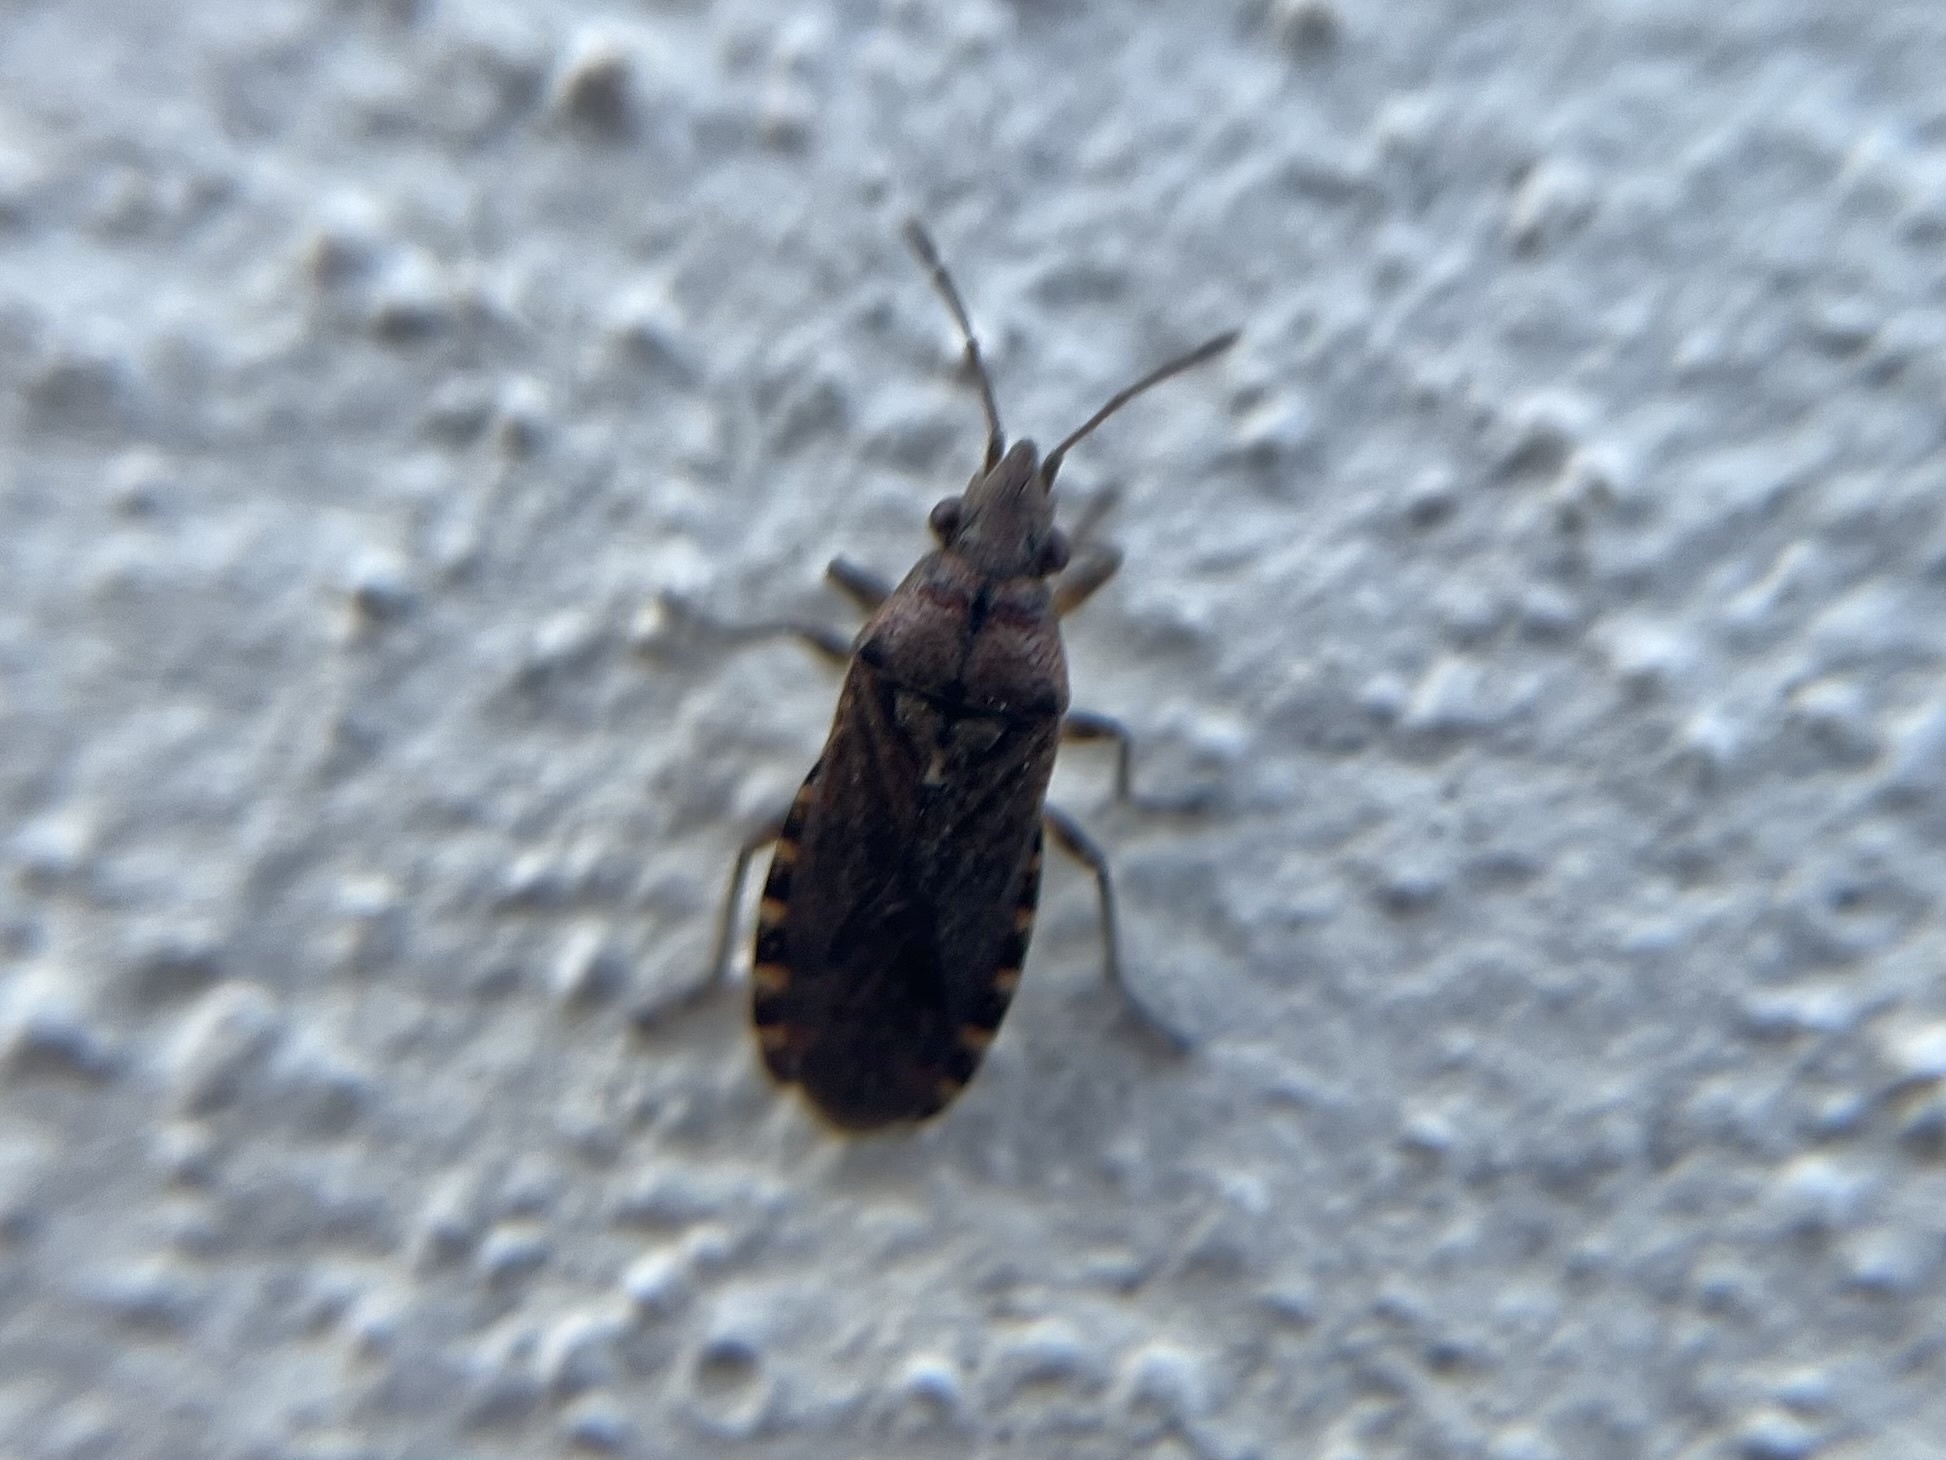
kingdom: Animalia
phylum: Arthropoda
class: Insecta
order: Hemiptera
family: Lygaeidae
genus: Orsillus
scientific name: Orsillus depressus
